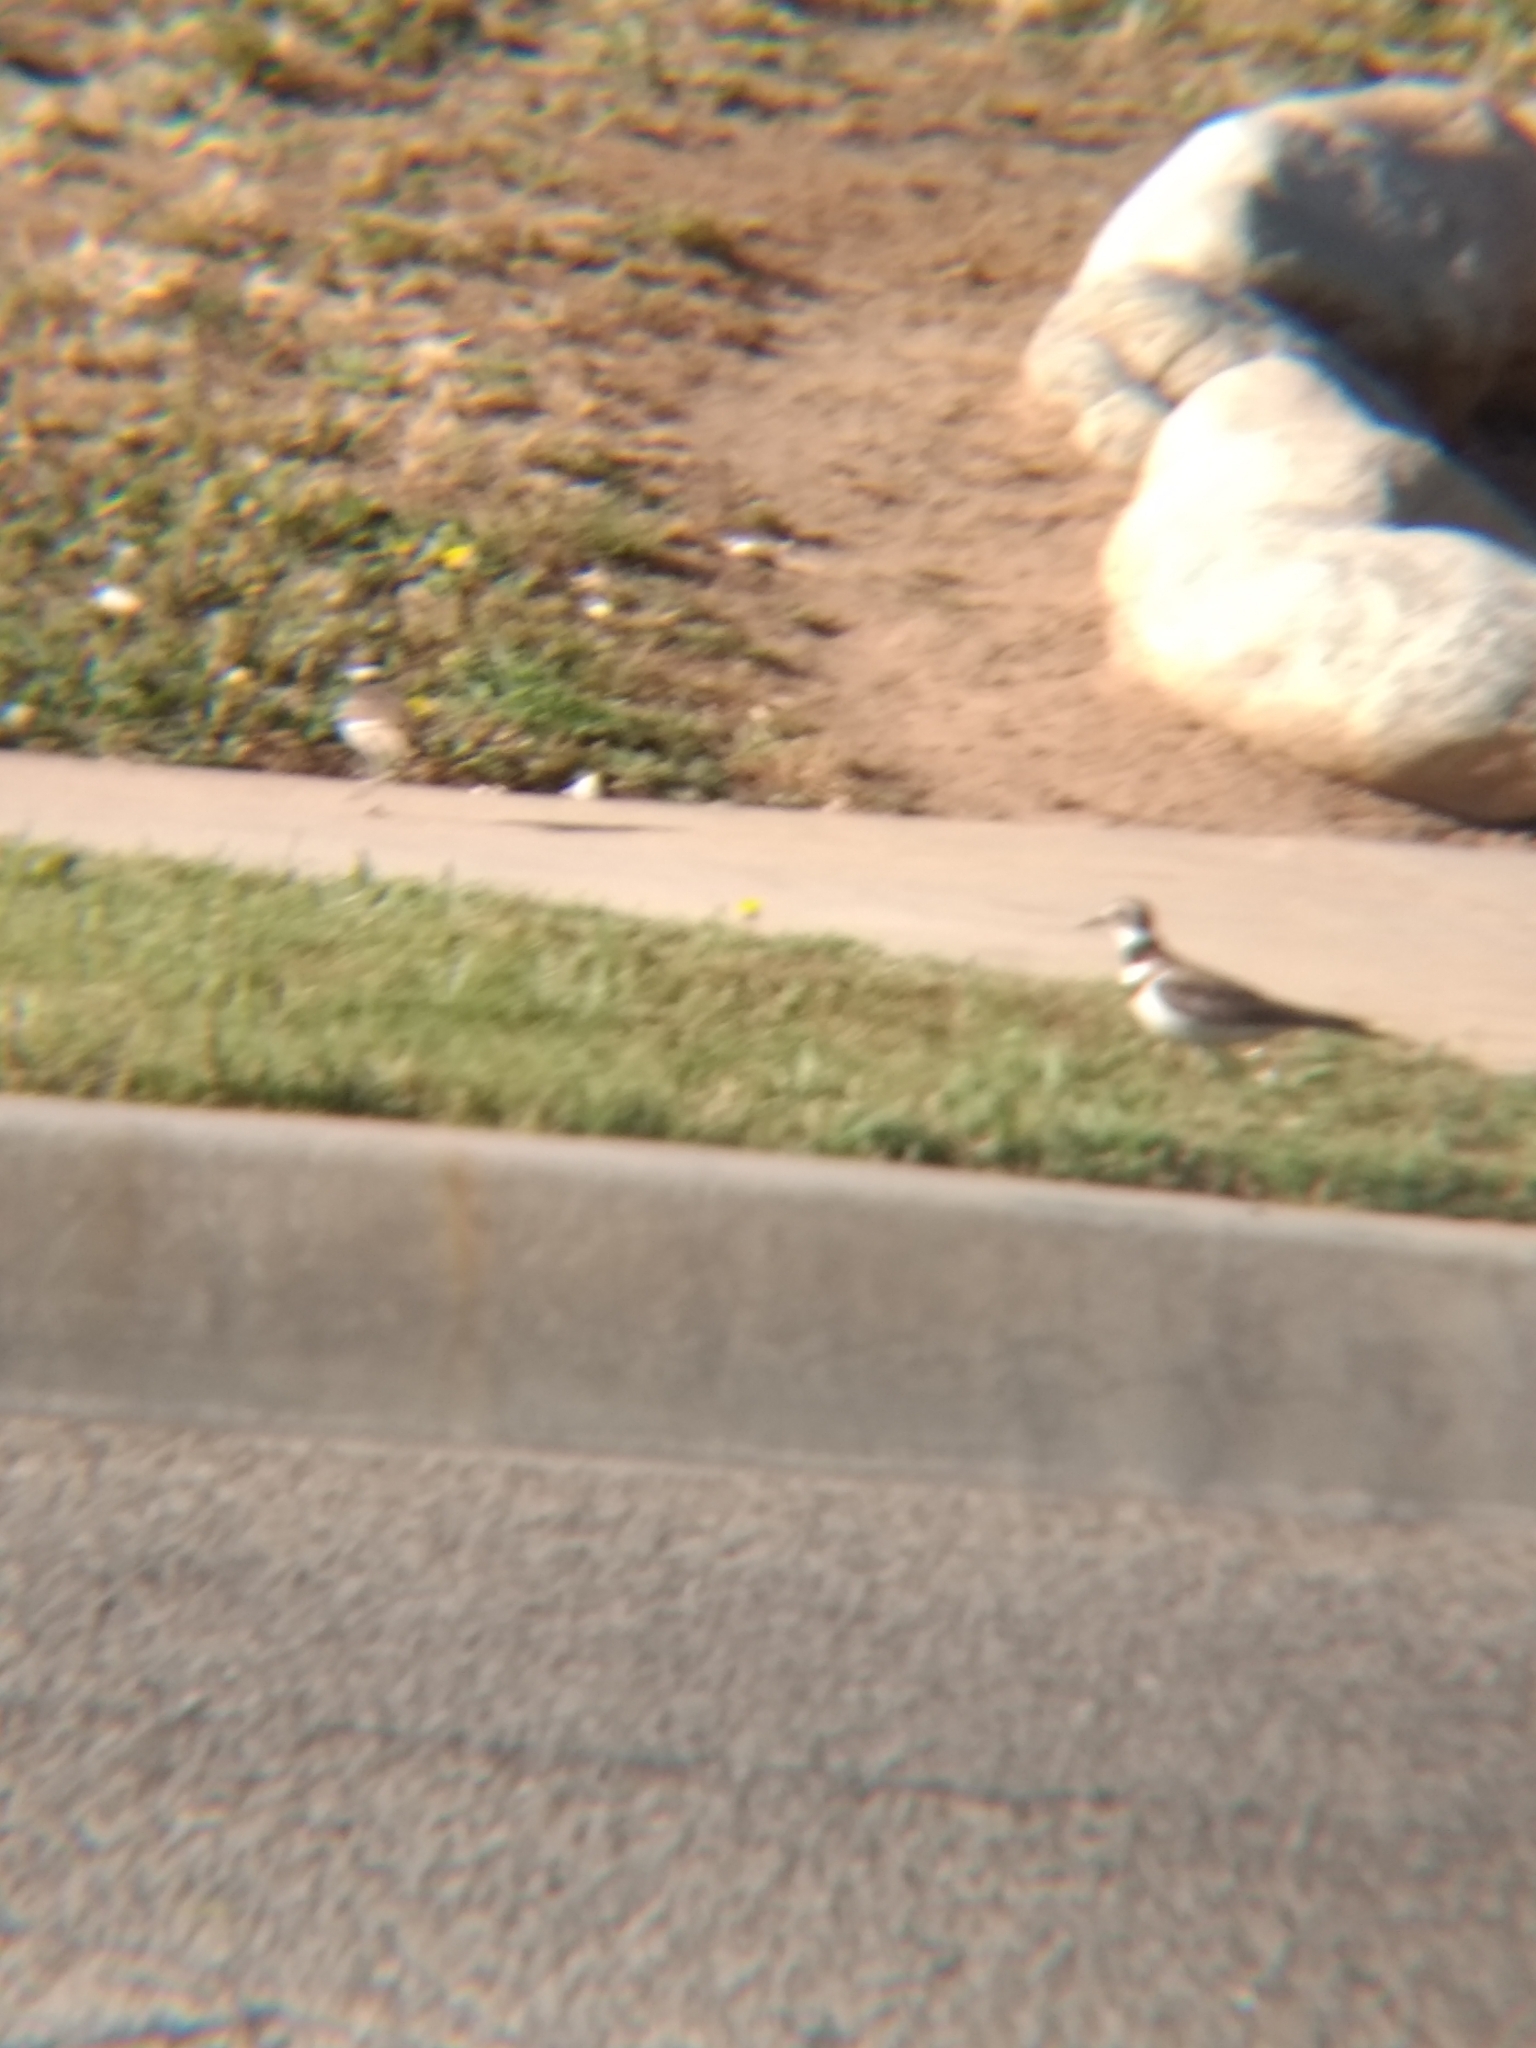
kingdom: Animalia
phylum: Chordata
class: Aves
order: Charadriiformes
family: Charadriidae
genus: Charadrius
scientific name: Charadrius vociferus
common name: Killdeer
